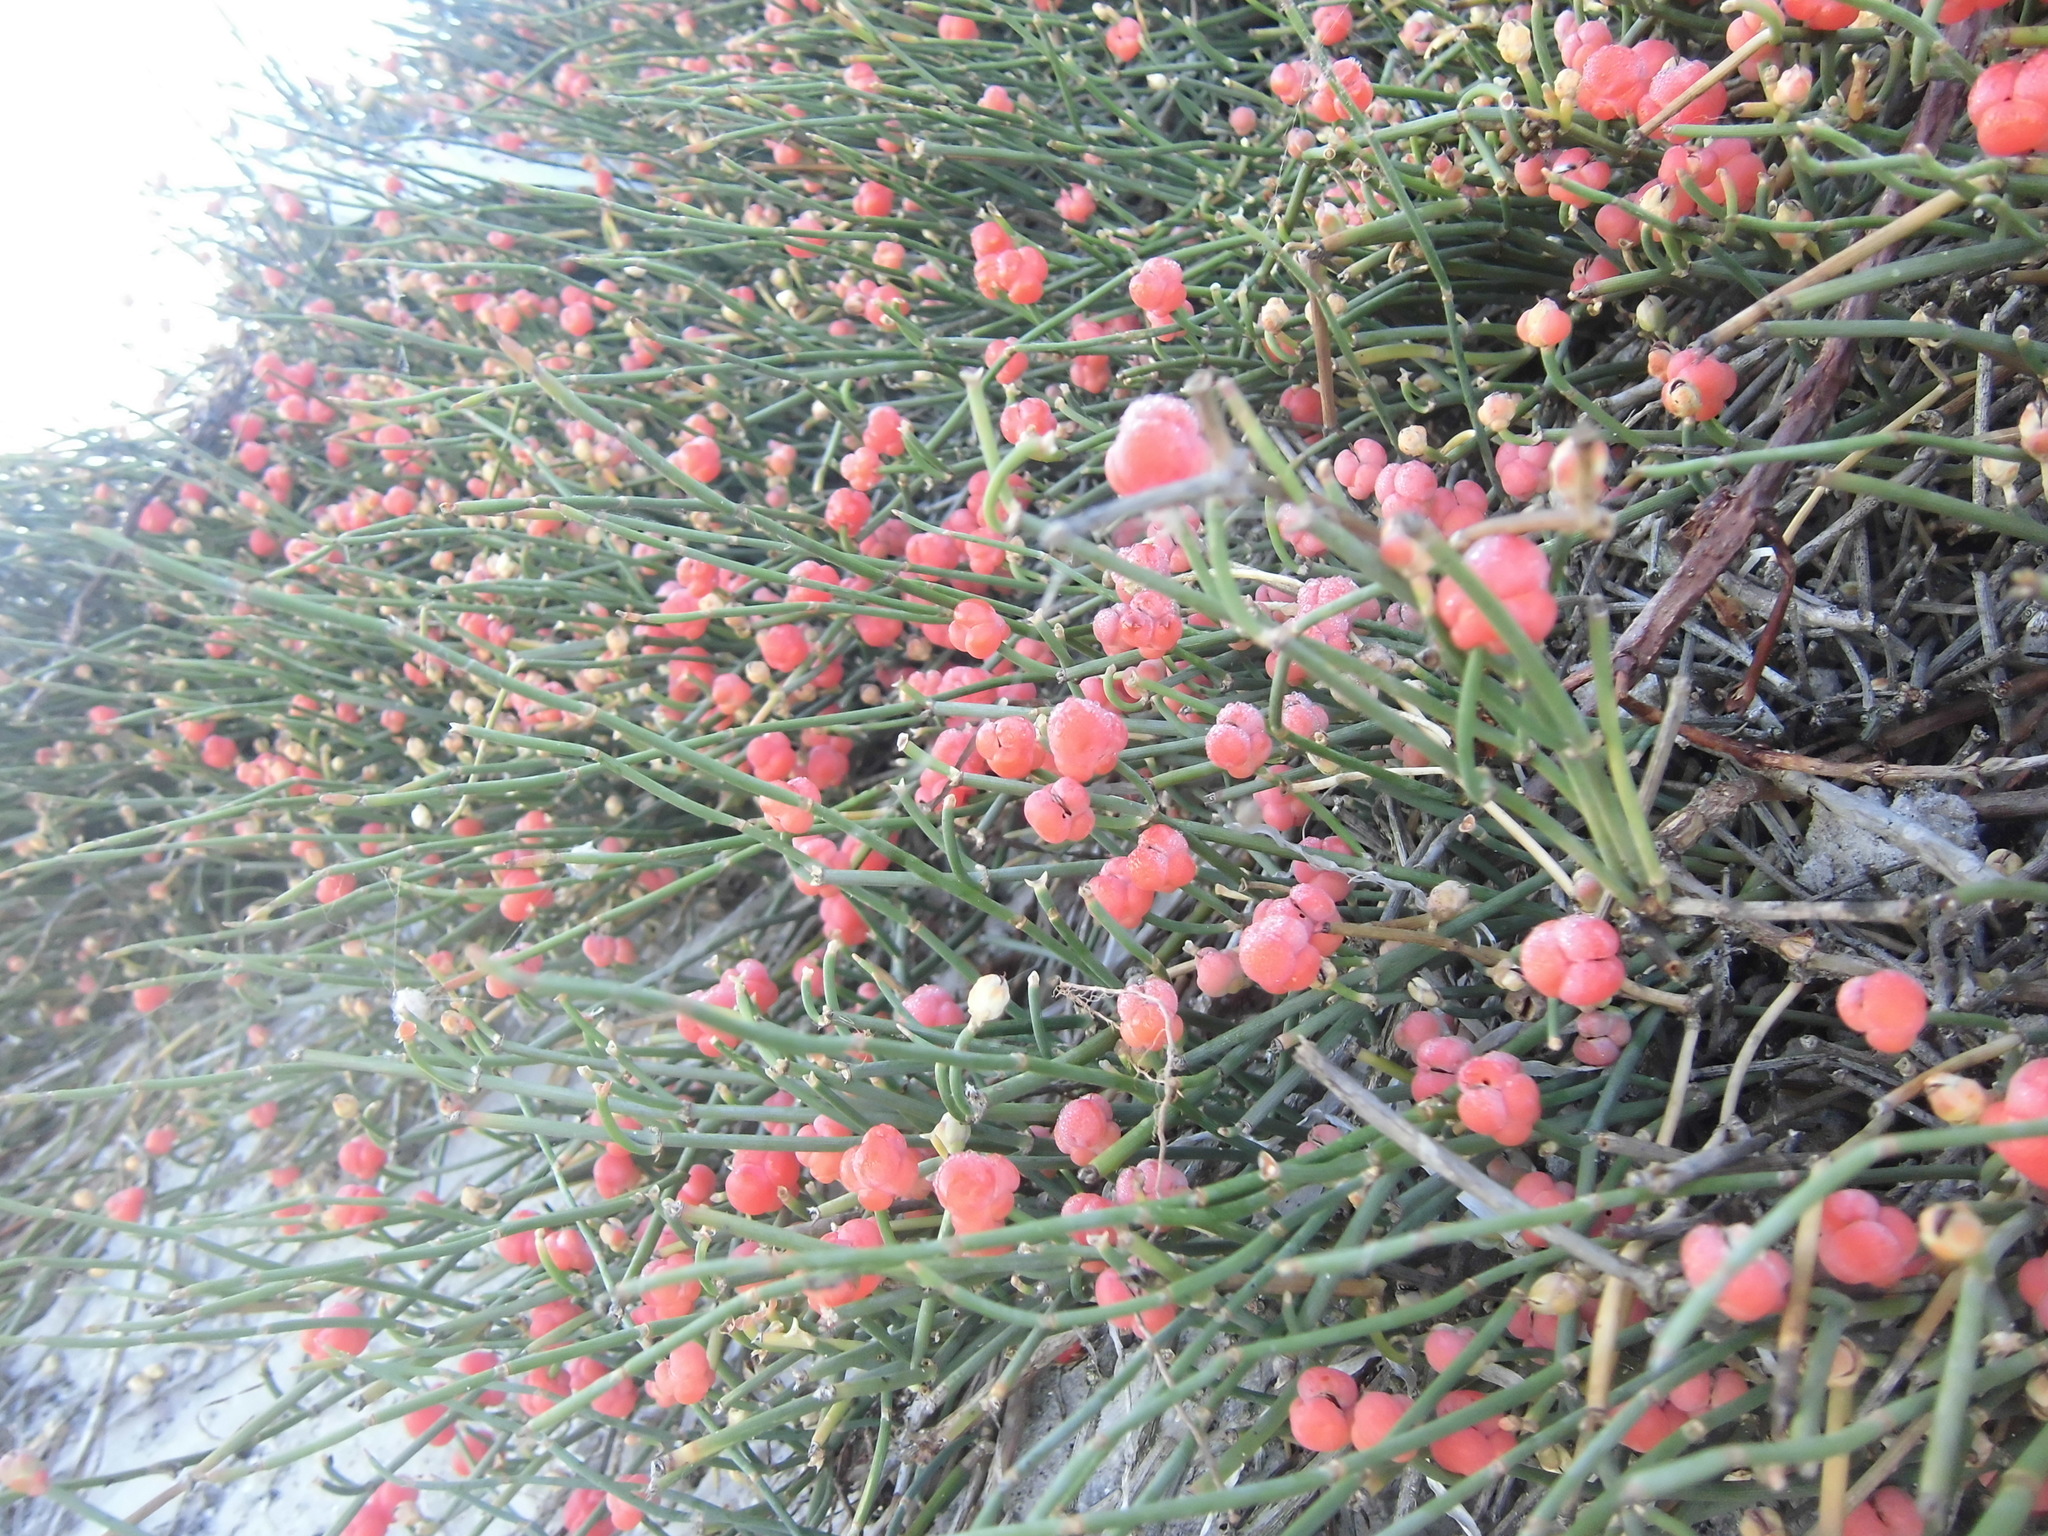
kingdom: Plantae
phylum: Tracheophyta
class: Gnetopsida
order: Ephedrales
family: Ephedraceae
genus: Ephedra
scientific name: Ephedra distachya
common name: Sea grape
